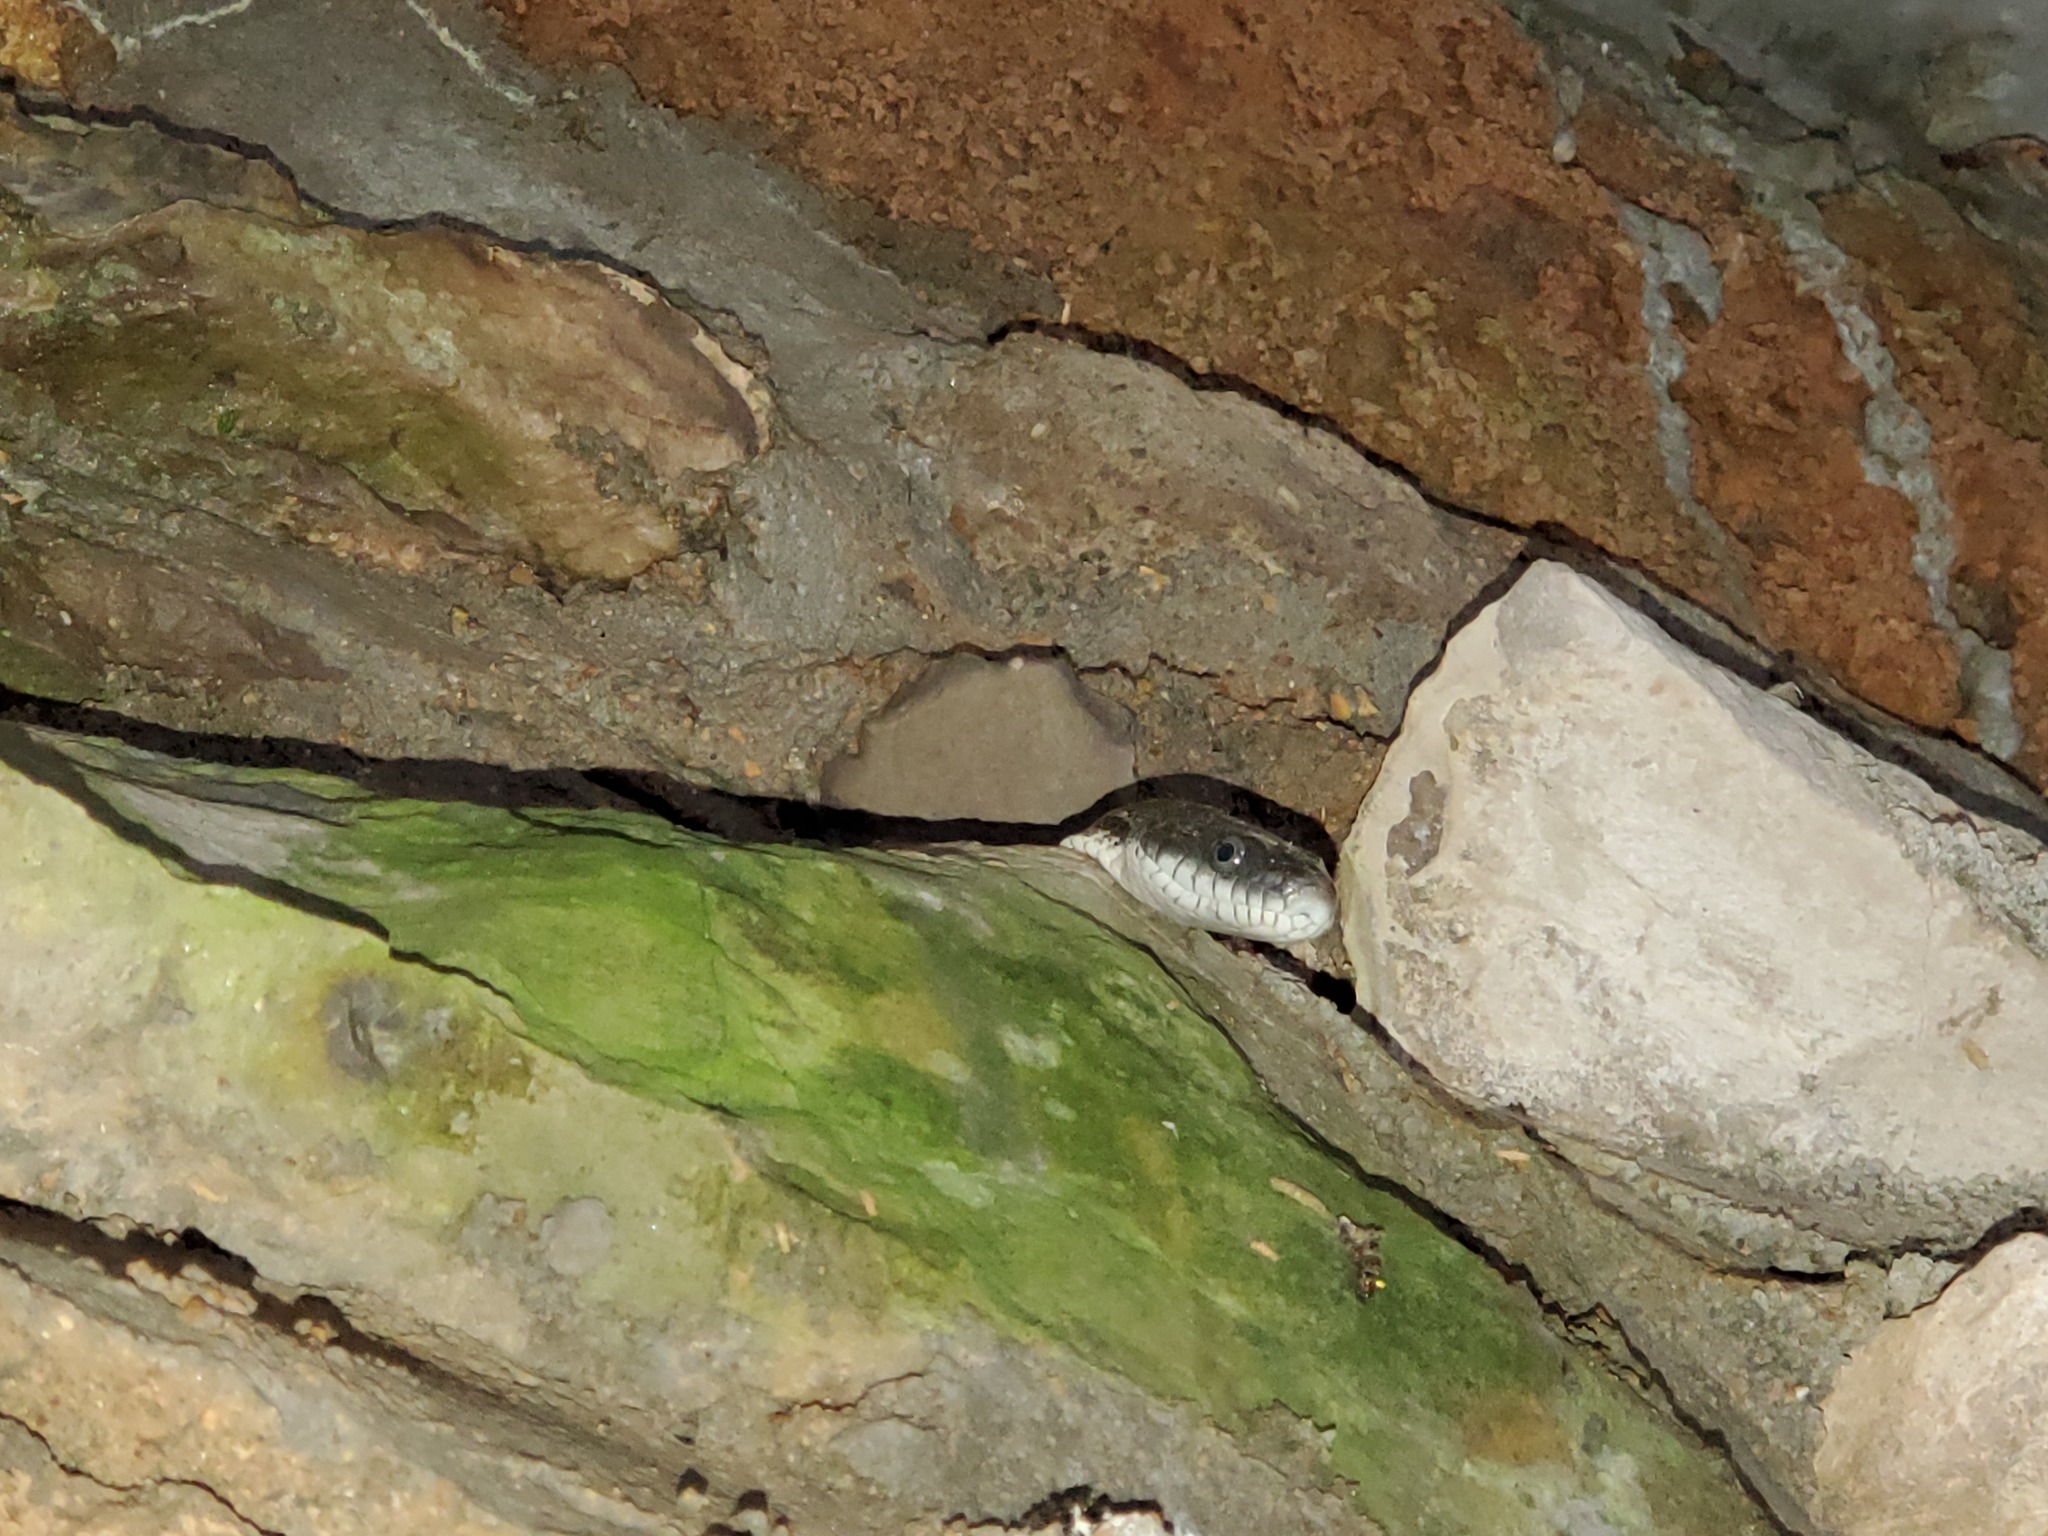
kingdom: Animalia
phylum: Chordata
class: Squamata
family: Colubridae
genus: Pantherophis
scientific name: Pantherophis spiloides
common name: Gray rat snake
